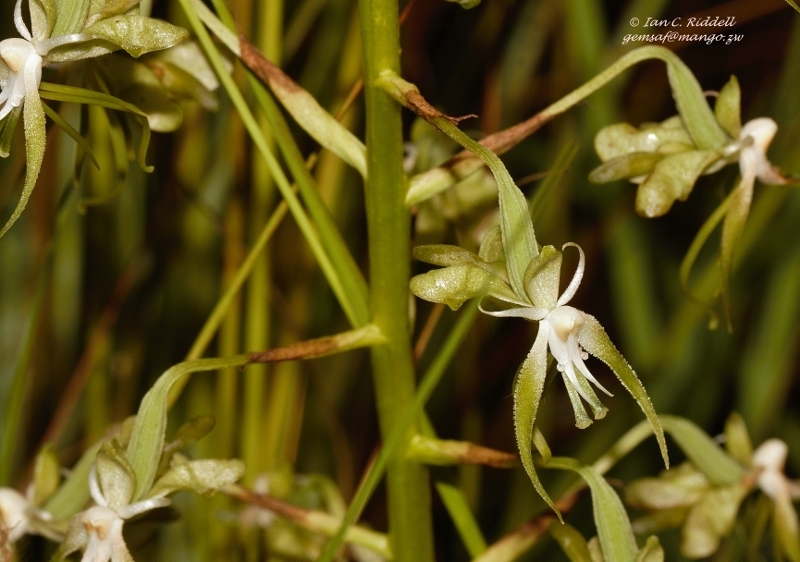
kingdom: Plantae
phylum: Tracheophyta
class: Liliopsida
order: Asparagales
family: Orchidaceae
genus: Habenaria
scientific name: Habenaria schimperiana
